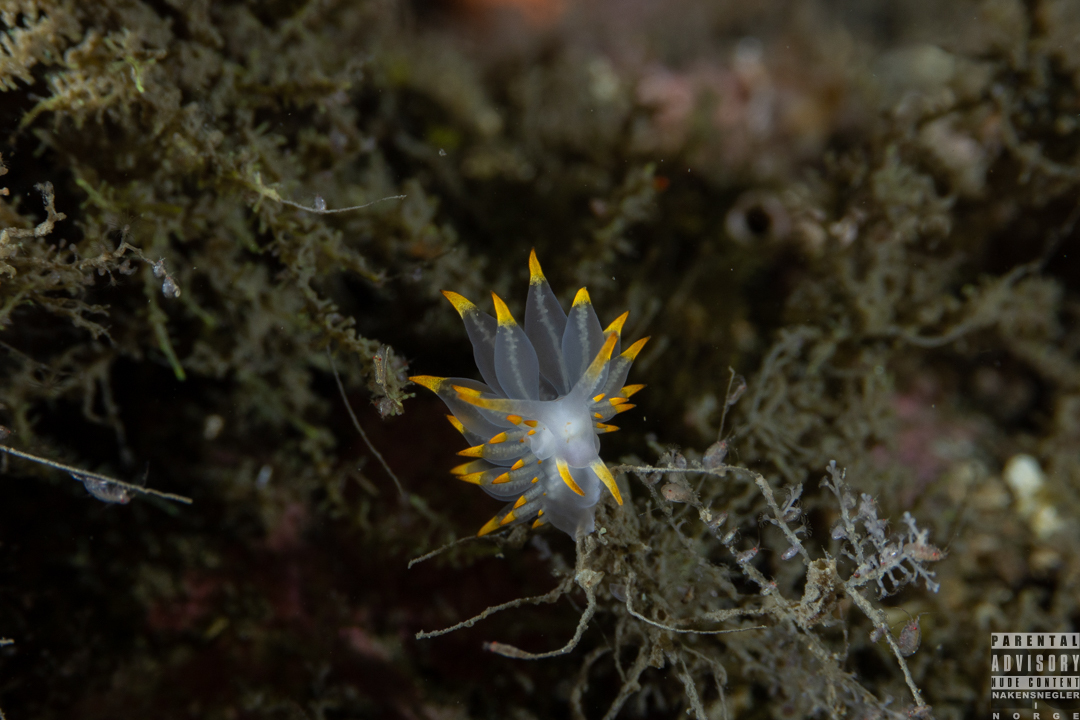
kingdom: Animalia
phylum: Mollusca
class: Gastropoda
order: Nudibranchia
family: Eubranchidae
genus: Amphorina
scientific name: Amphorina farrani
